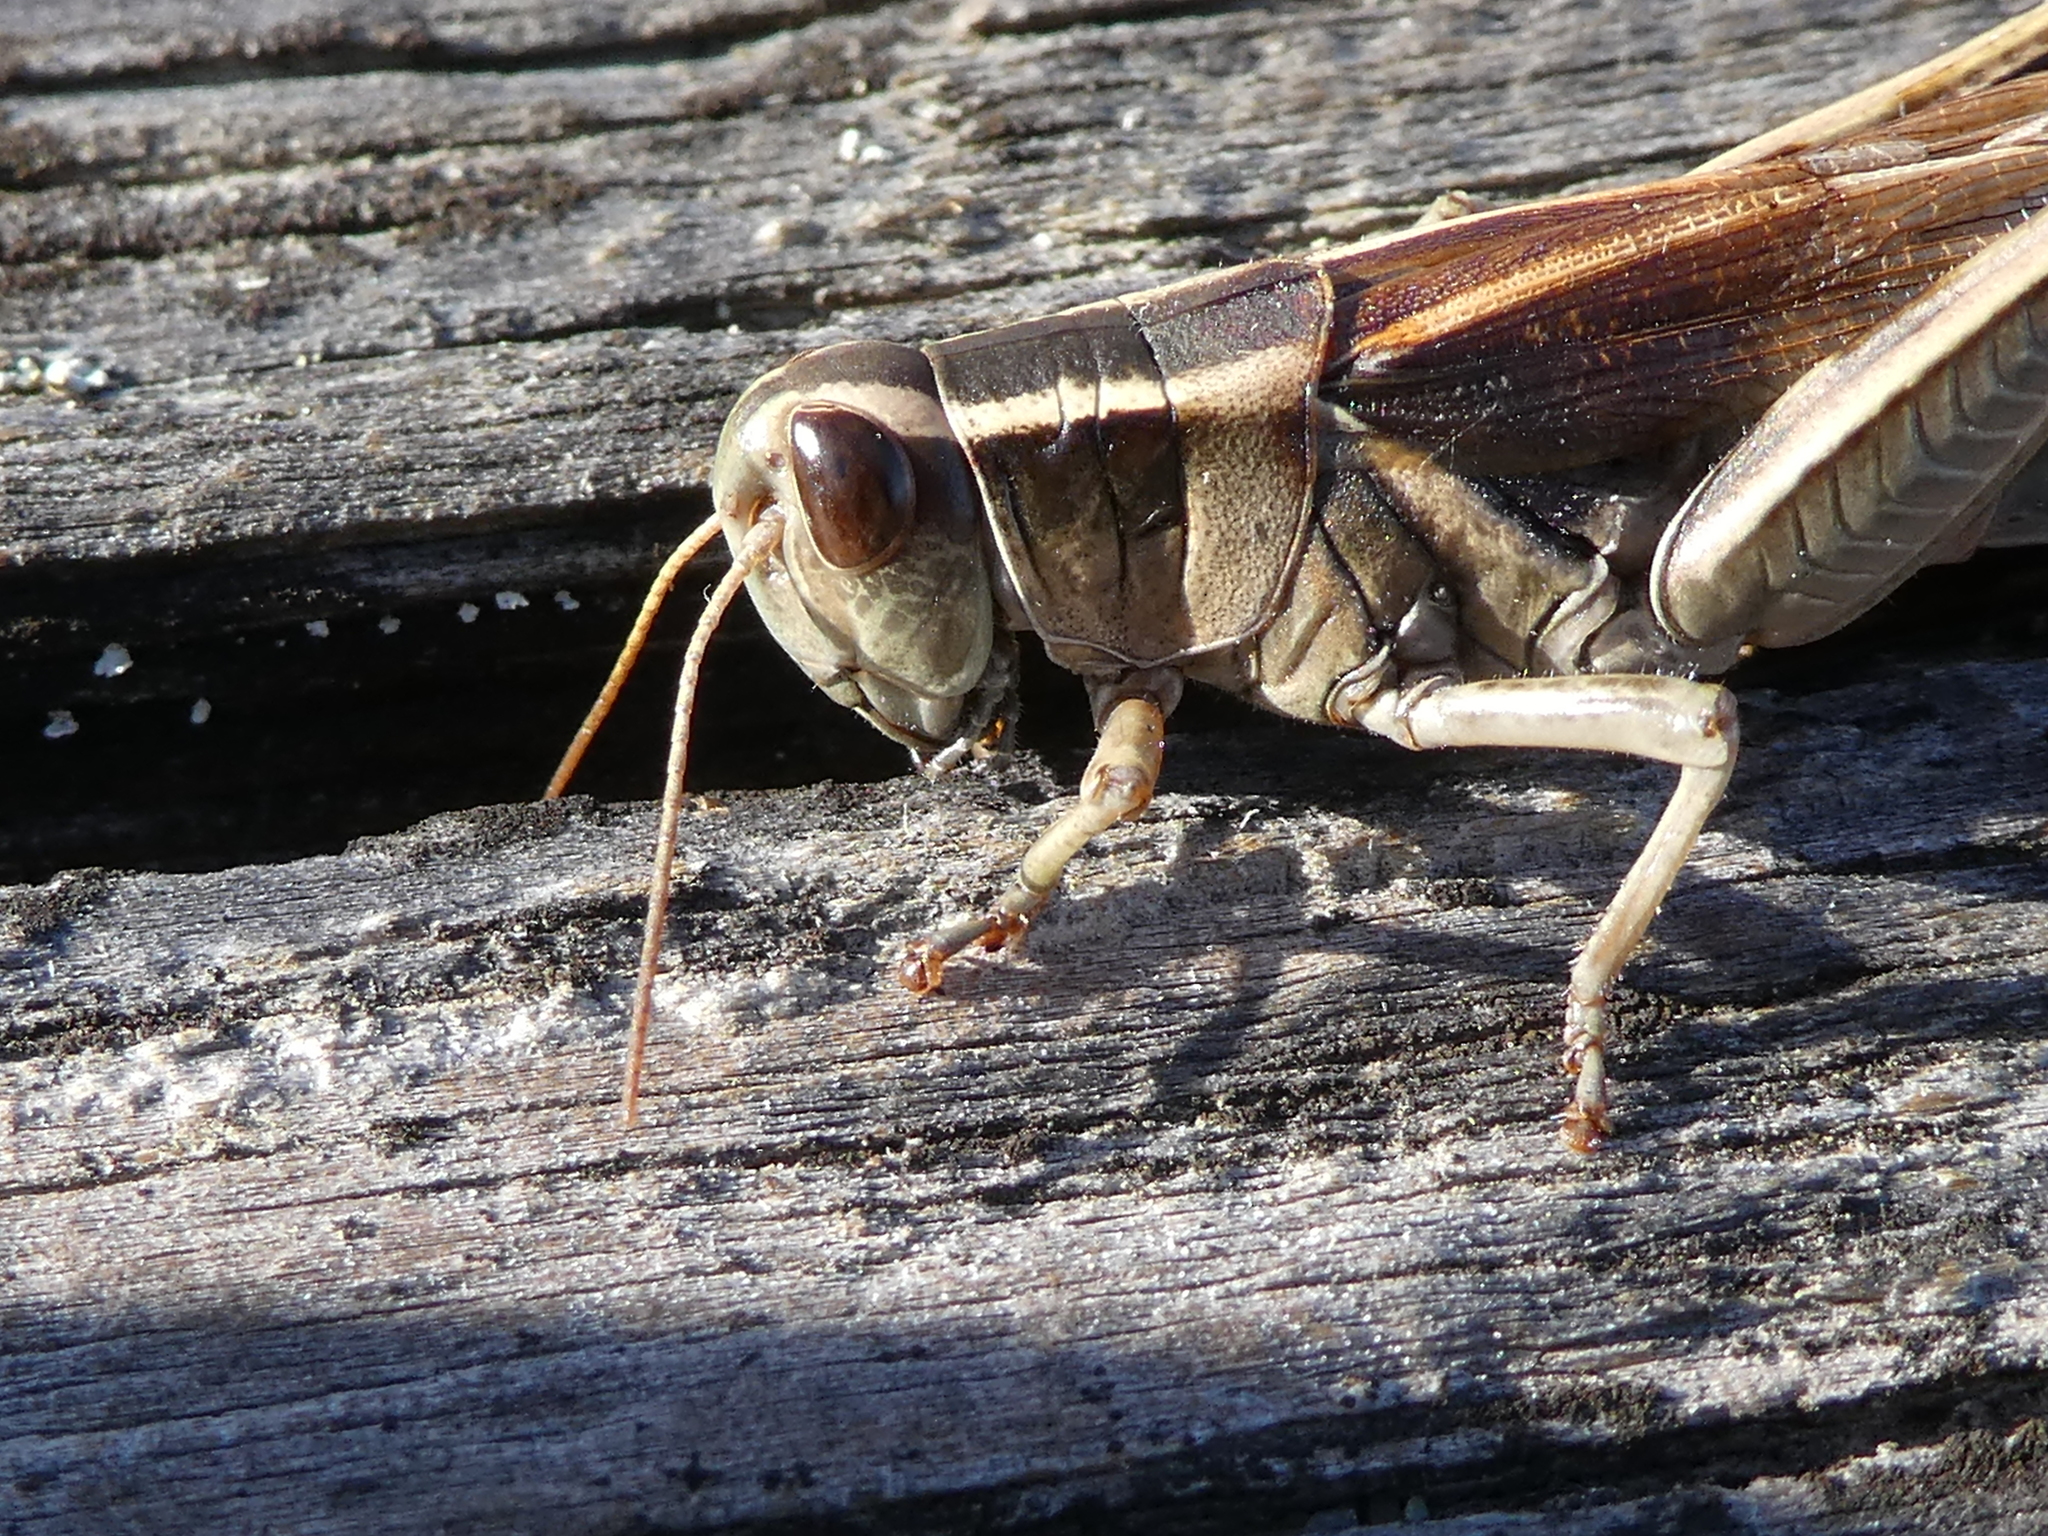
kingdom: Animalia
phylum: Arthropoda
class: Insecta
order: Orthoptera
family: Acrididae
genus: Melanoplus
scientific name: Melanoplus bivittatus
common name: Two-striped grasshopper
